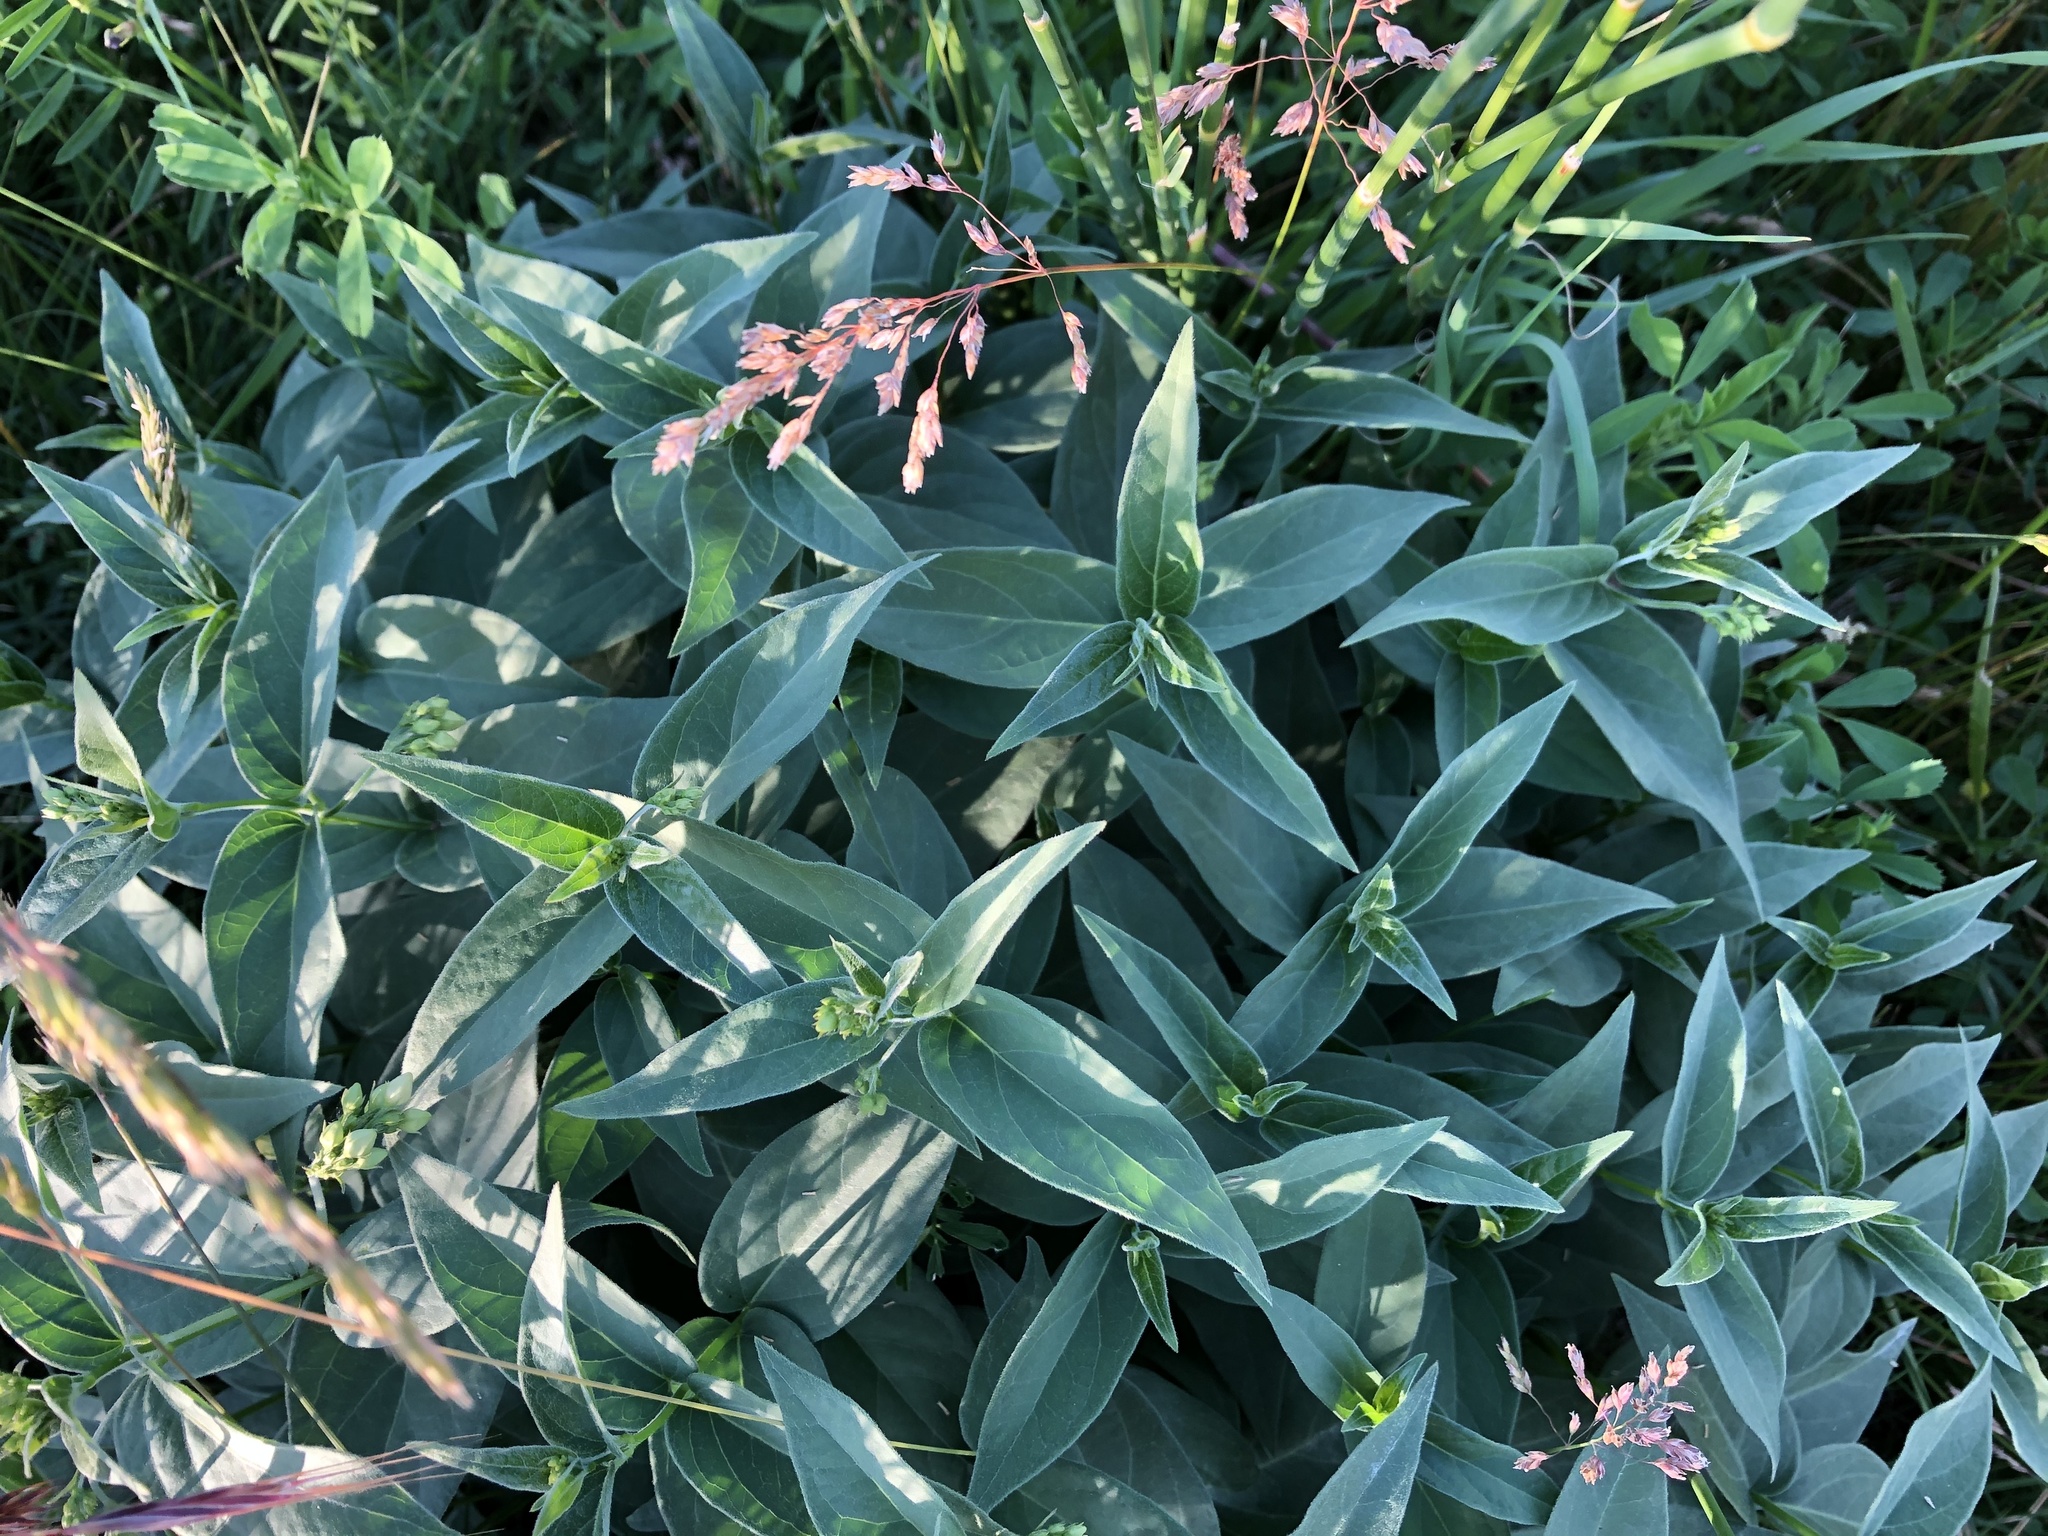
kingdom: Plantae
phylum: Tracheophyta
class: Magnoliopsida
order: Gentianales
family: Apocynaceae
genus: Vincetoxicum
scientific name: Vincetoxicum hirundinaria
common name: White swallowwort
